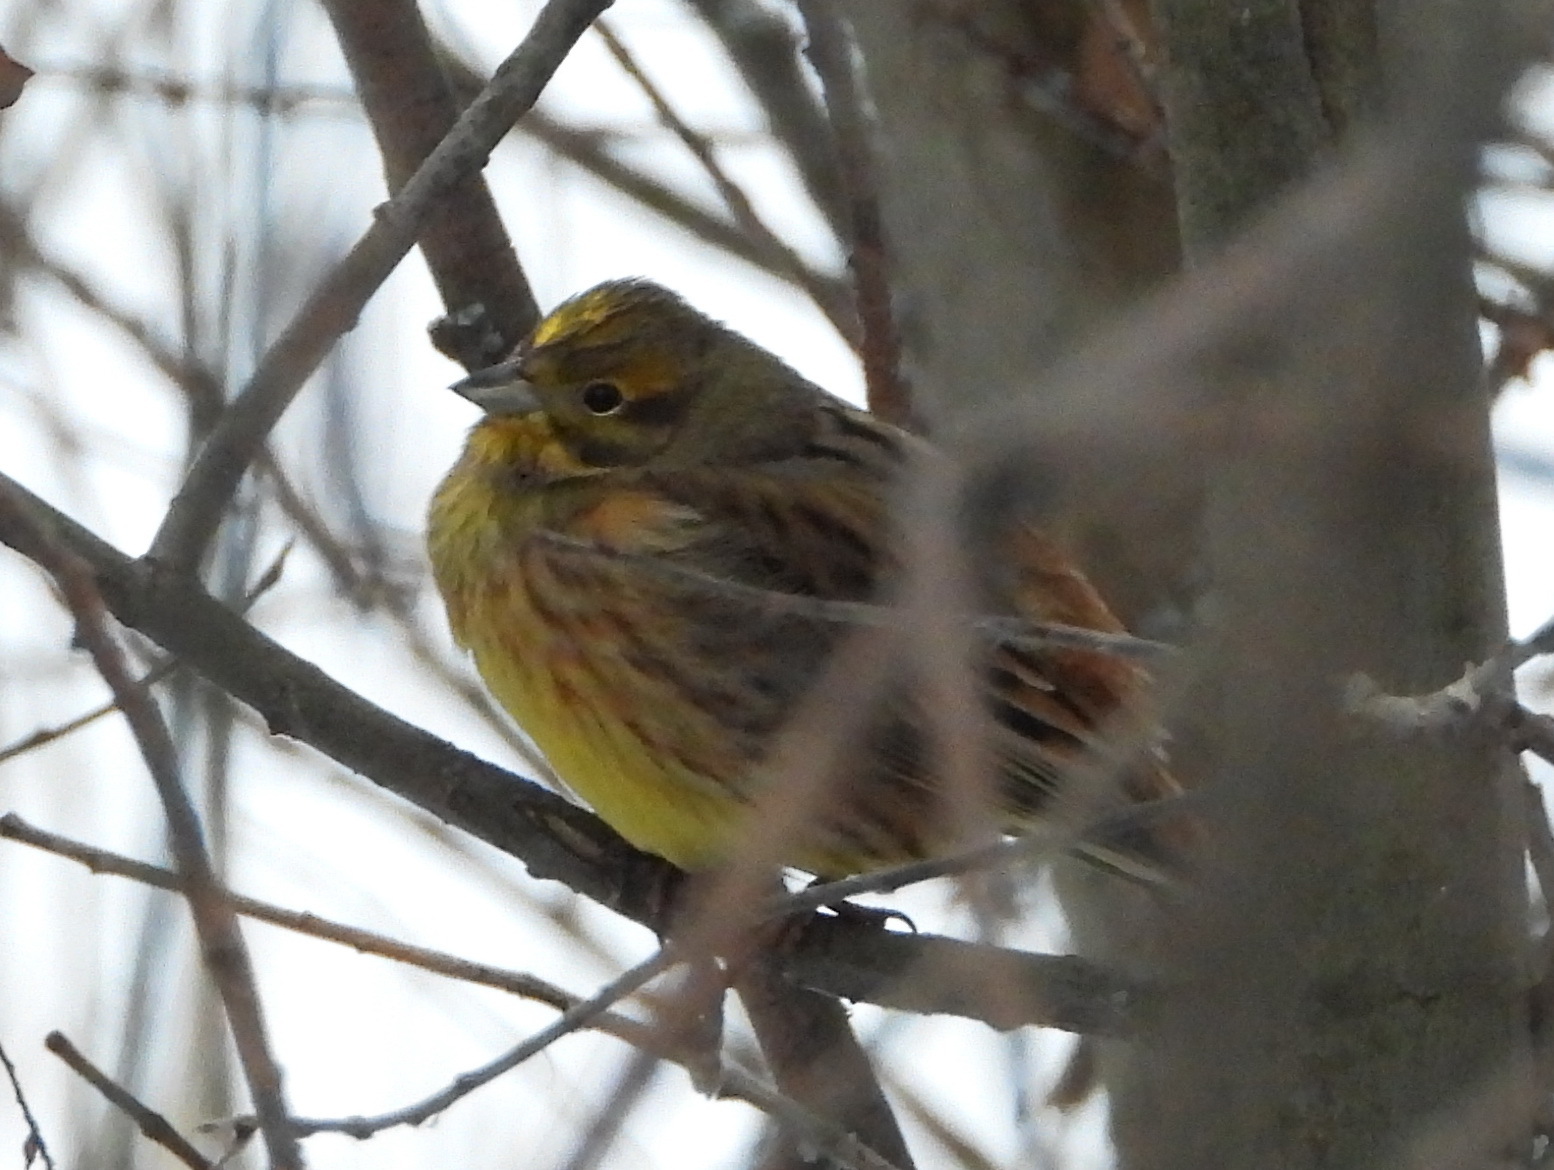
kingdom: Animalia
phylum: Chordata
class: Aves
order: Passeriformes
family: Emberizidae
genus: Emberiza
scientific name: Emberiza citrinella
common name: Yellowhammer
